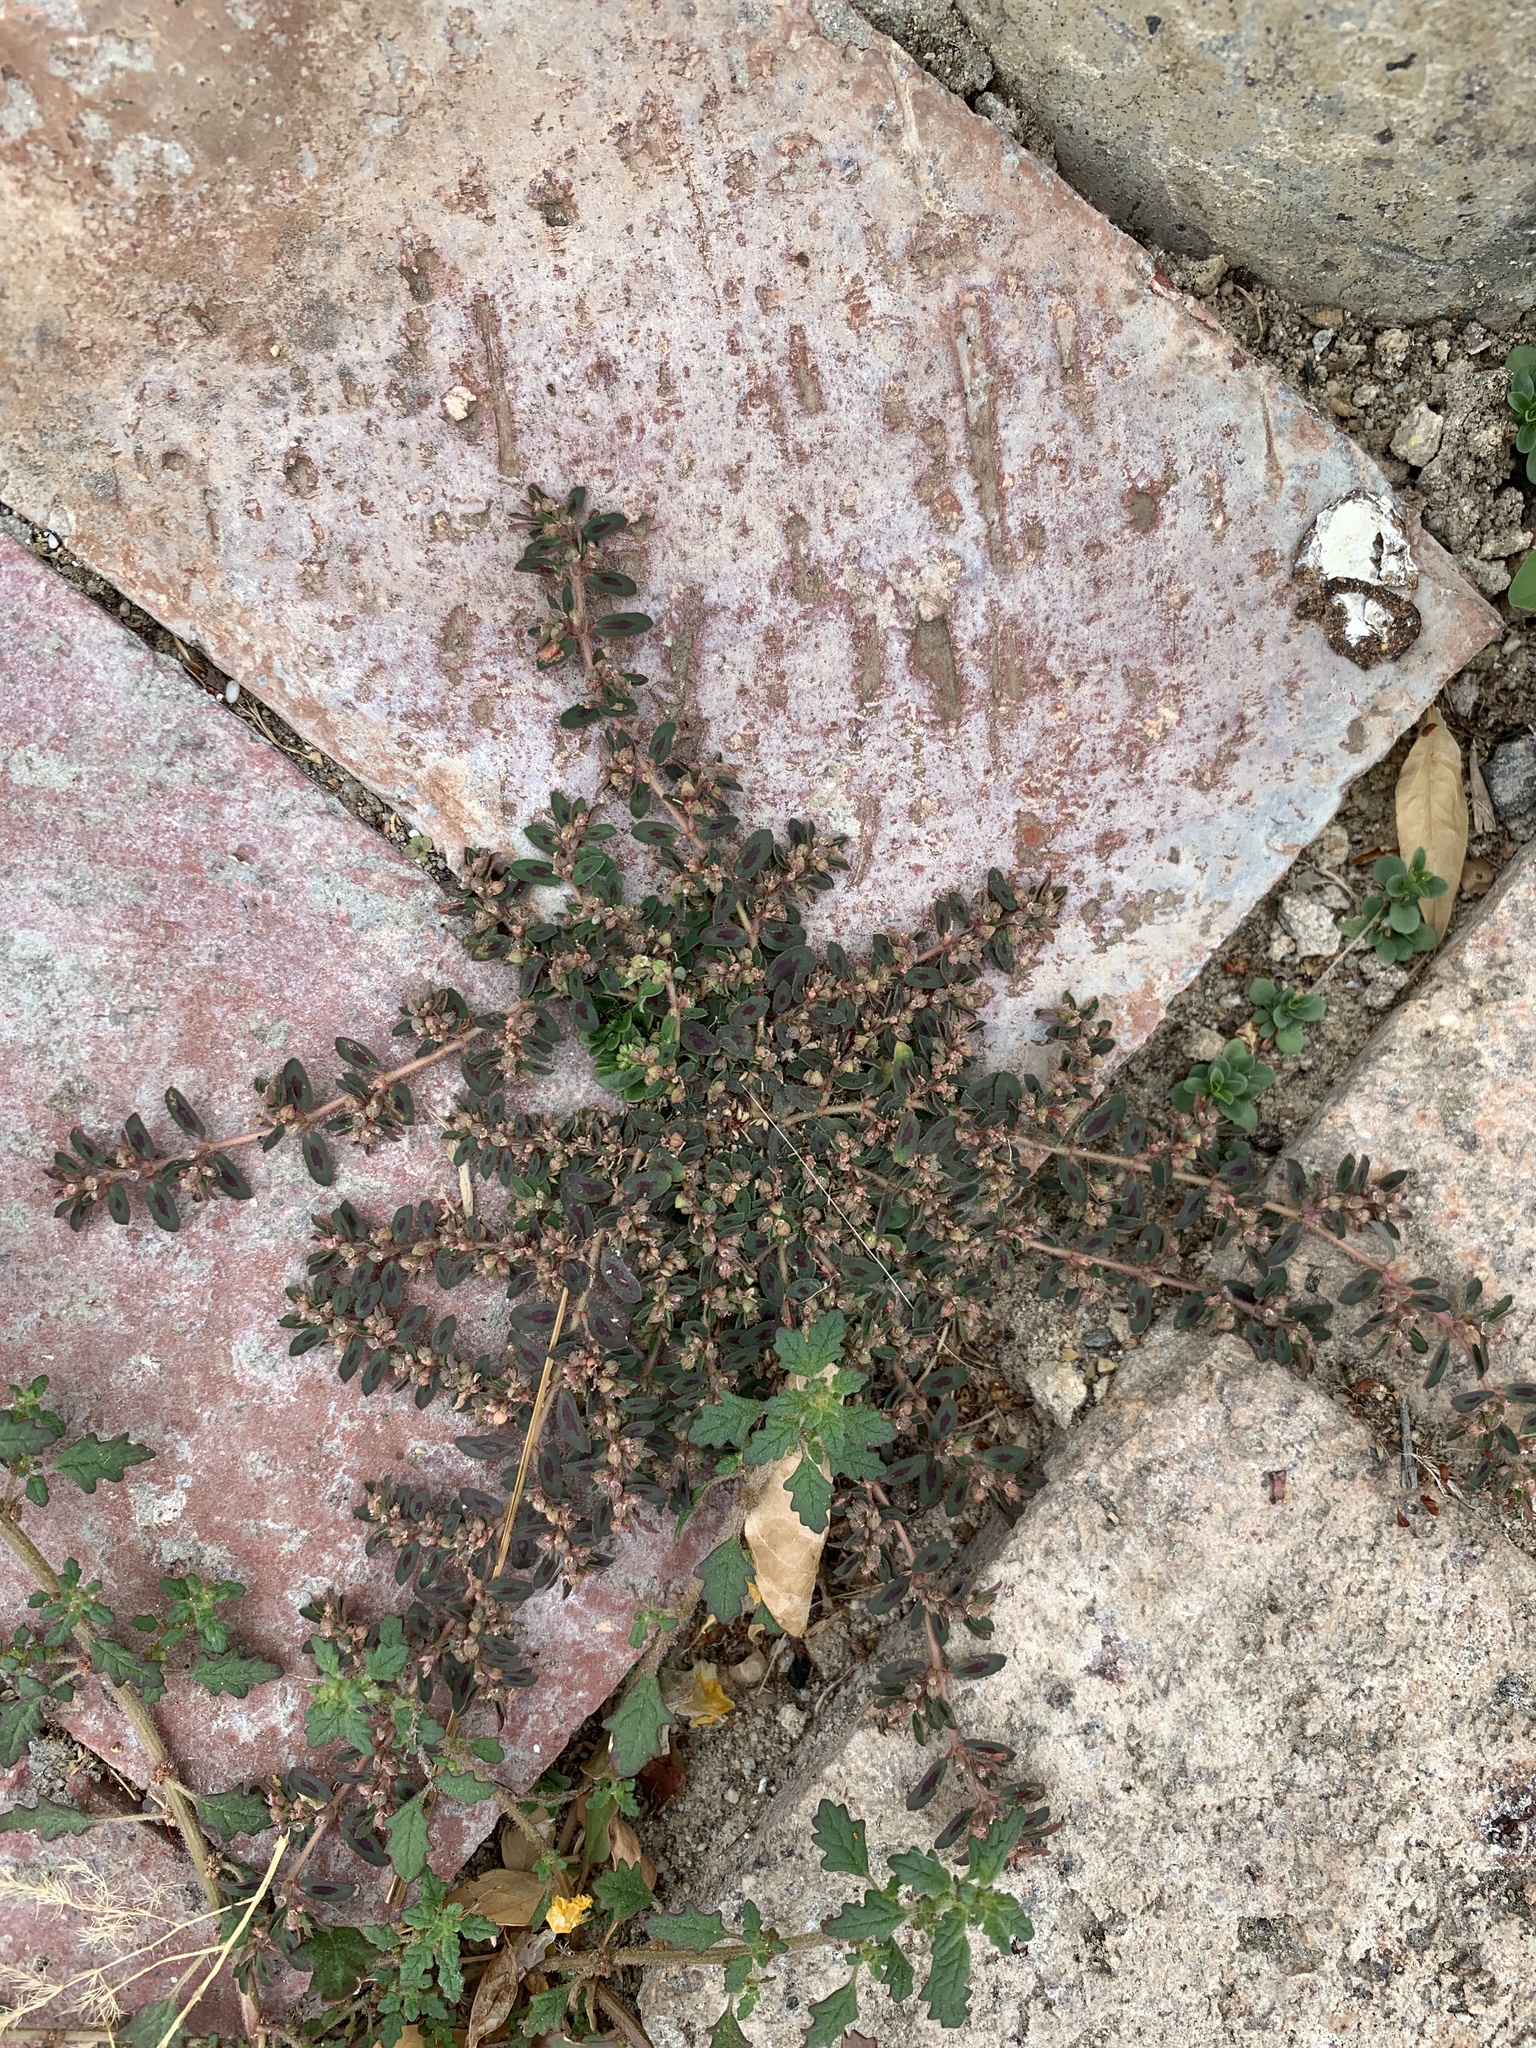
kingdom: Plantae
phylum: Tracheophyta
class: Magnoliopsida
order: Malpighiales
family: Euphorbiaceae
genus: Euphorbia
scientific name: Euphorbia maculata
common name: Spotted spurge
